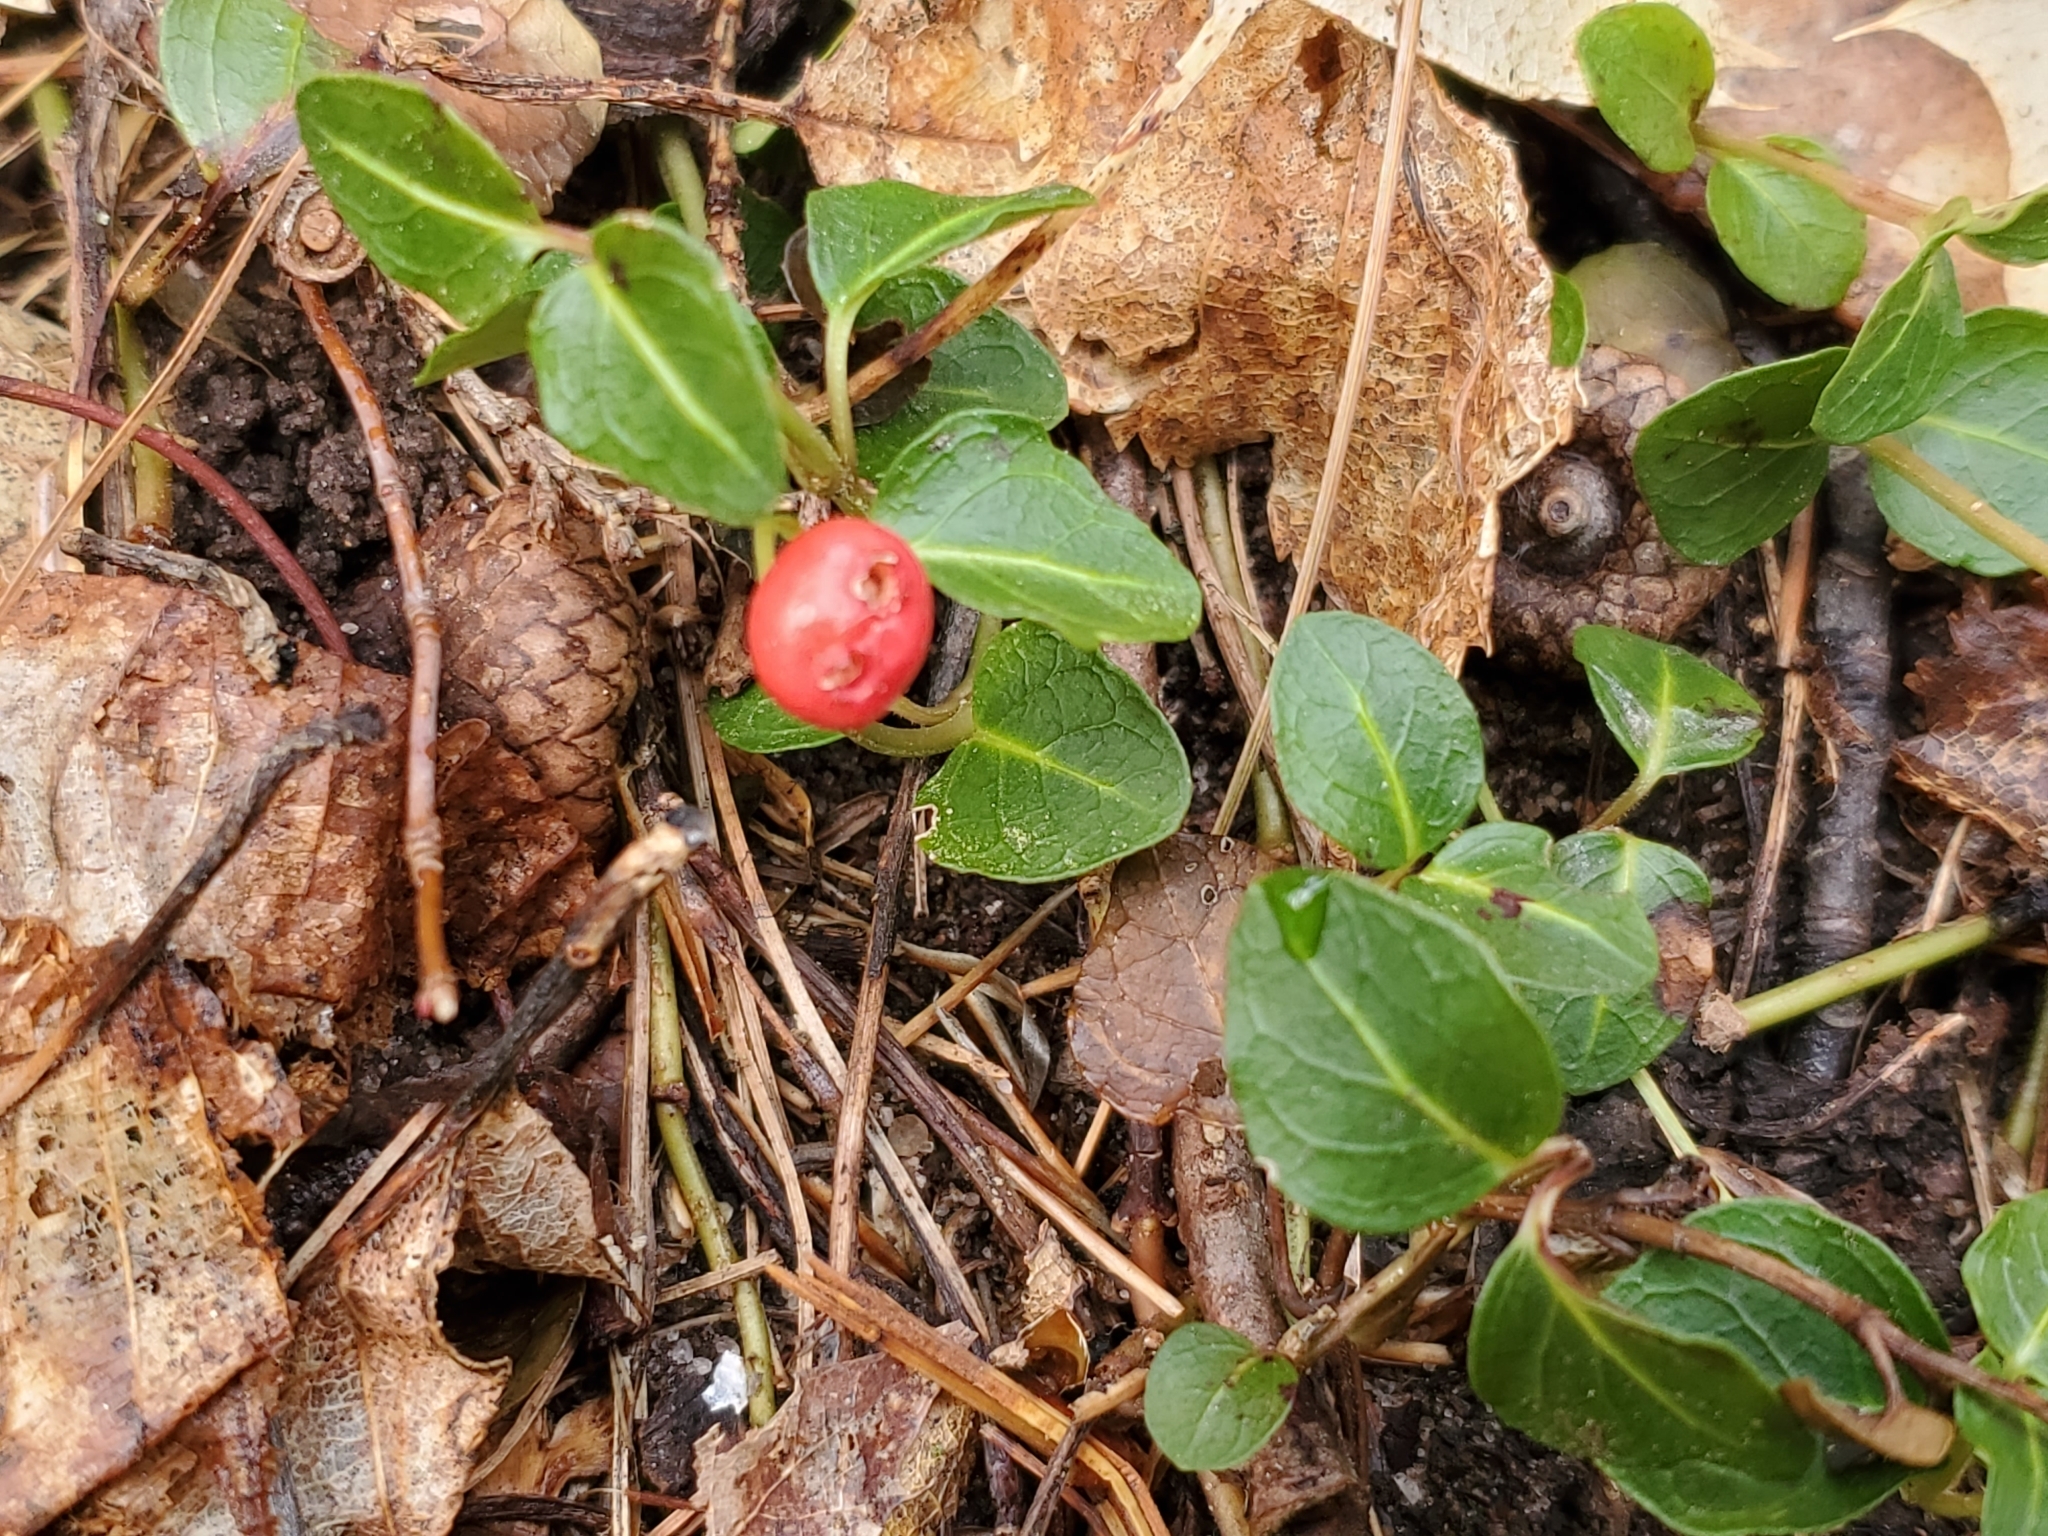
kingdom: Plantae
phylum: Tracheophyta
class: Magnoliopsida
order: Gentianales
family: Rubiaceae
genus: Mitchella
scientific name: Mitchella repens
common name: Partridge-berry
